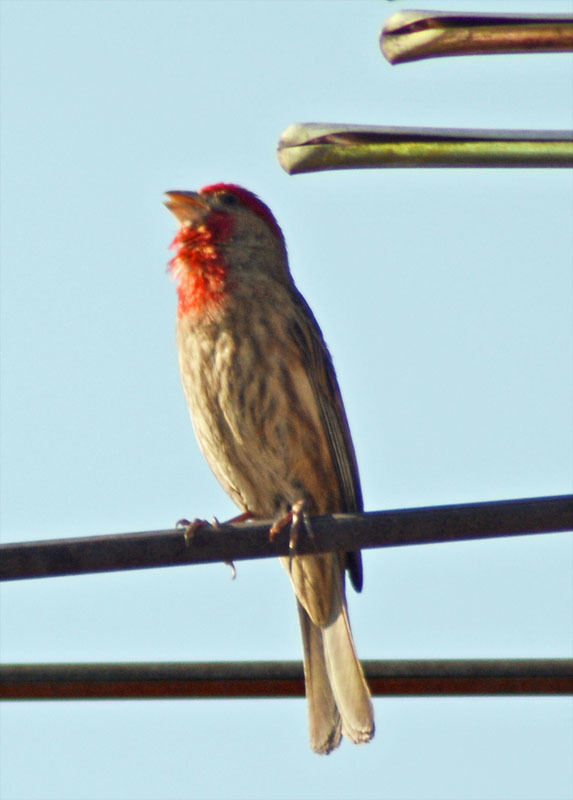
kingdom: Animalia
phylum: Chordata
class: Aves
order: Passeriformes
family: Fringillidae
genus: Haemorhous
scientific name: Haemorhous mexicanus
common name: House finch
